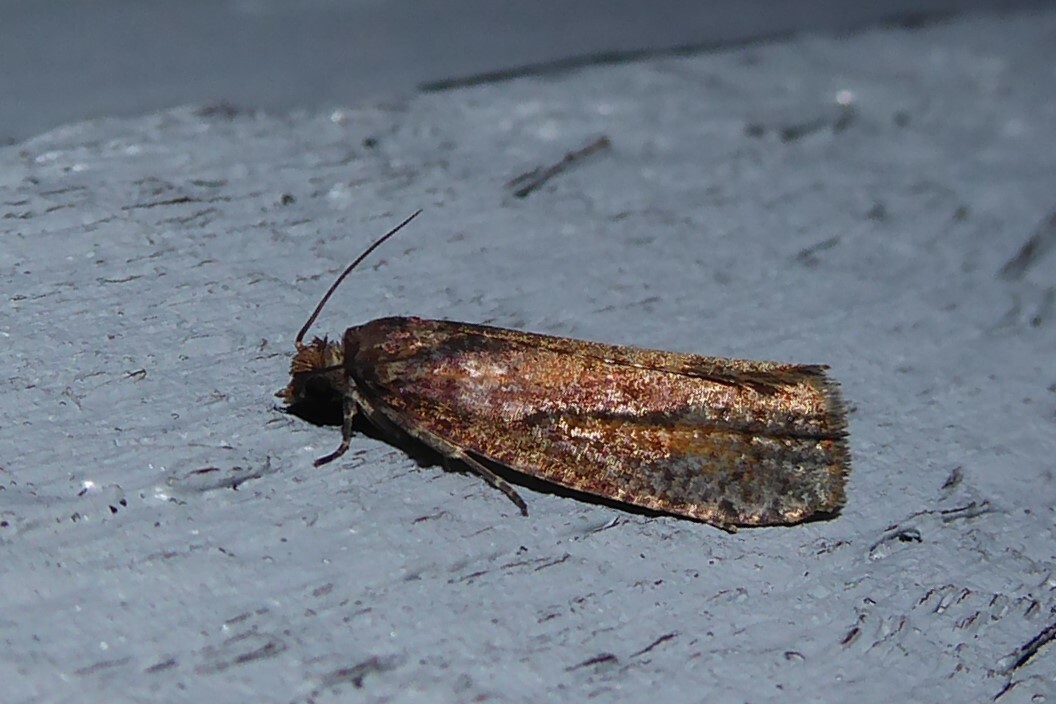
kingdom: Animalia
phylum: Arthropoda
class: Insecta
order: Lepidoptera
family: Tortricidae
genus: Cryptaspasma
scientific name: Cryptaspasma querula
